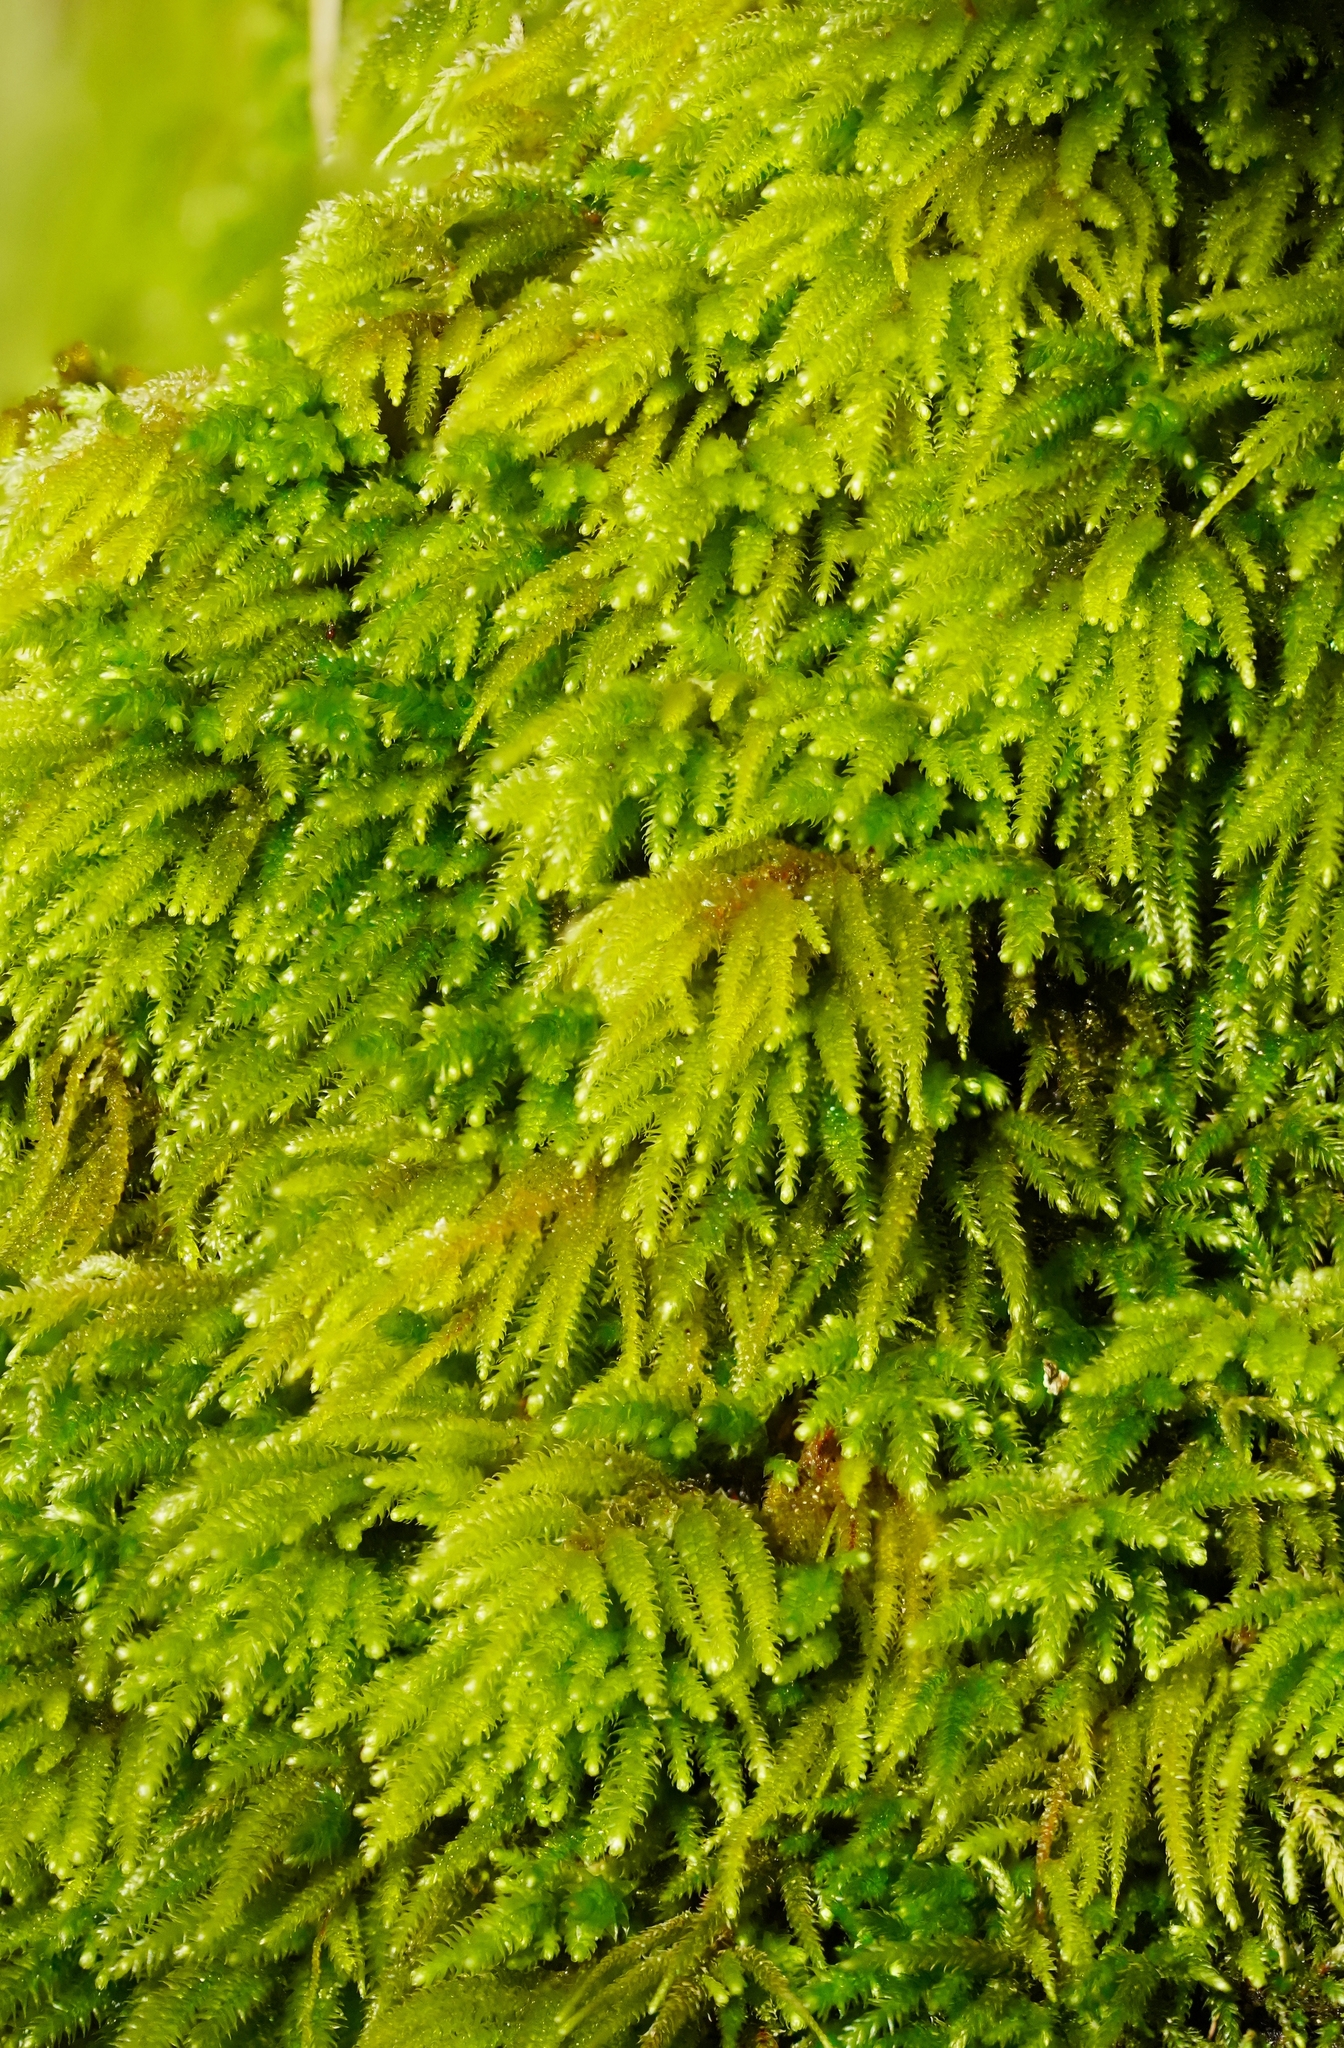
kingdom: Plantae
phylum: Bryophyta
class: Bryopsida
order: Hypnales
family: Cryphaeaceae
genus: Dendroalsia
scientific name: Dendroalsia abietina
